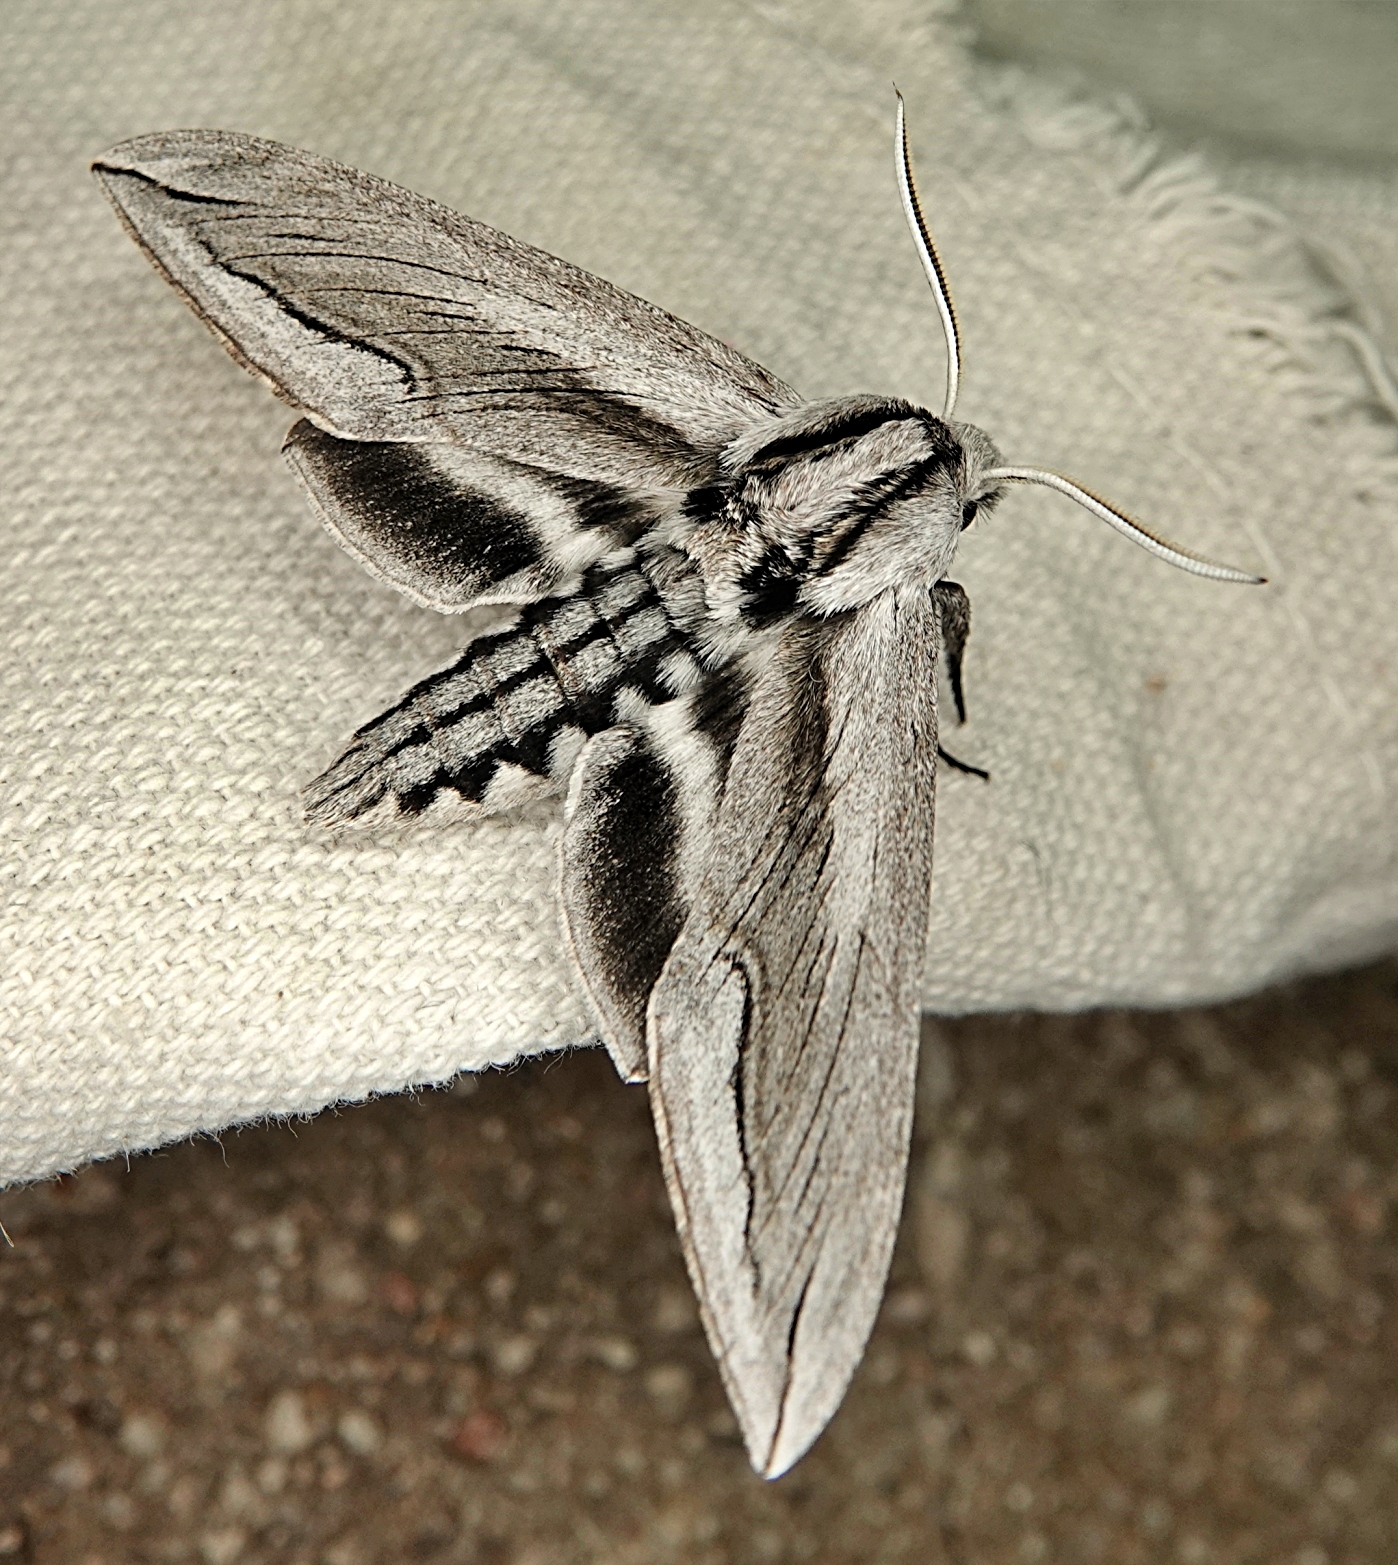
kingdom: Animalia
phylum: Arthropoda
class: Insecta
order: Lepidoptera
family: Sphingidae
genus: Sphinx
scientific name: Sphinx vashti
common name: Snowberry sphinx
